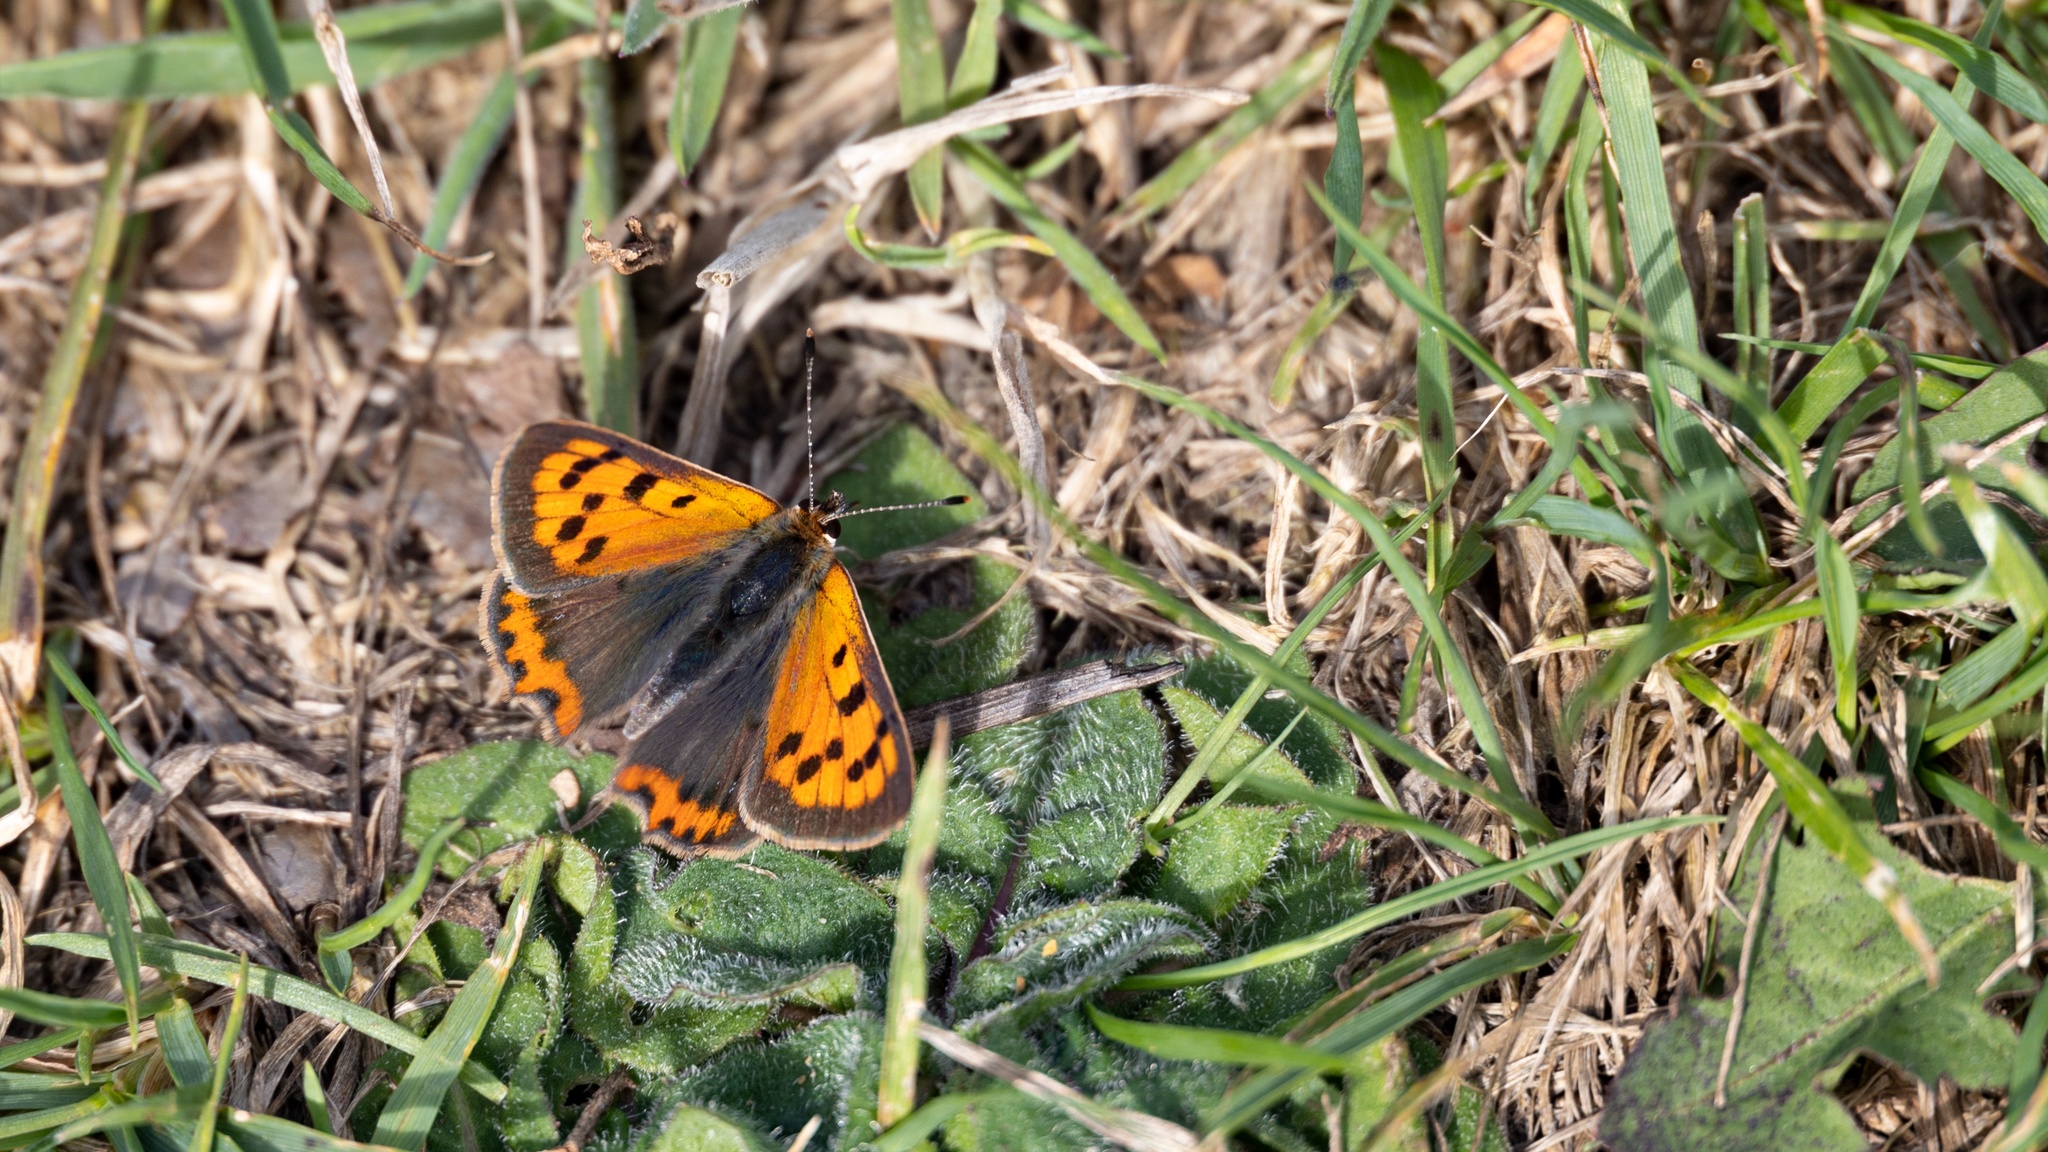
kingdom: Animalia
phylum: Arthropoda
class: Insecta
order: Lepidoptera
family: Lycaenidae
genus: Lycaena
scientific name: Lycaena phlaeas
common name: Small copper
